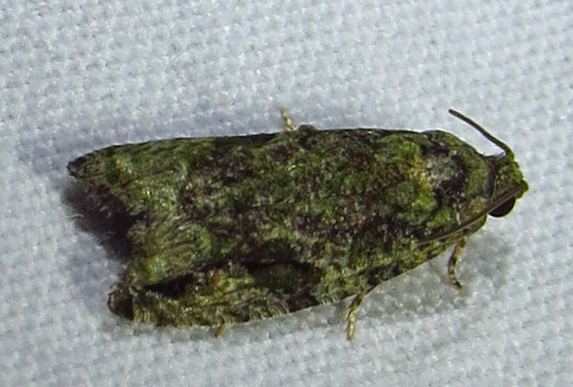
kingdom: Animalia
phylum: Arthropoda
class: Insecta
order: Lepidoptera
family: Tortricidae
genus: Proteoteras
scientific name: Proteoteras aesculana
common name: Maple twig borer moth
